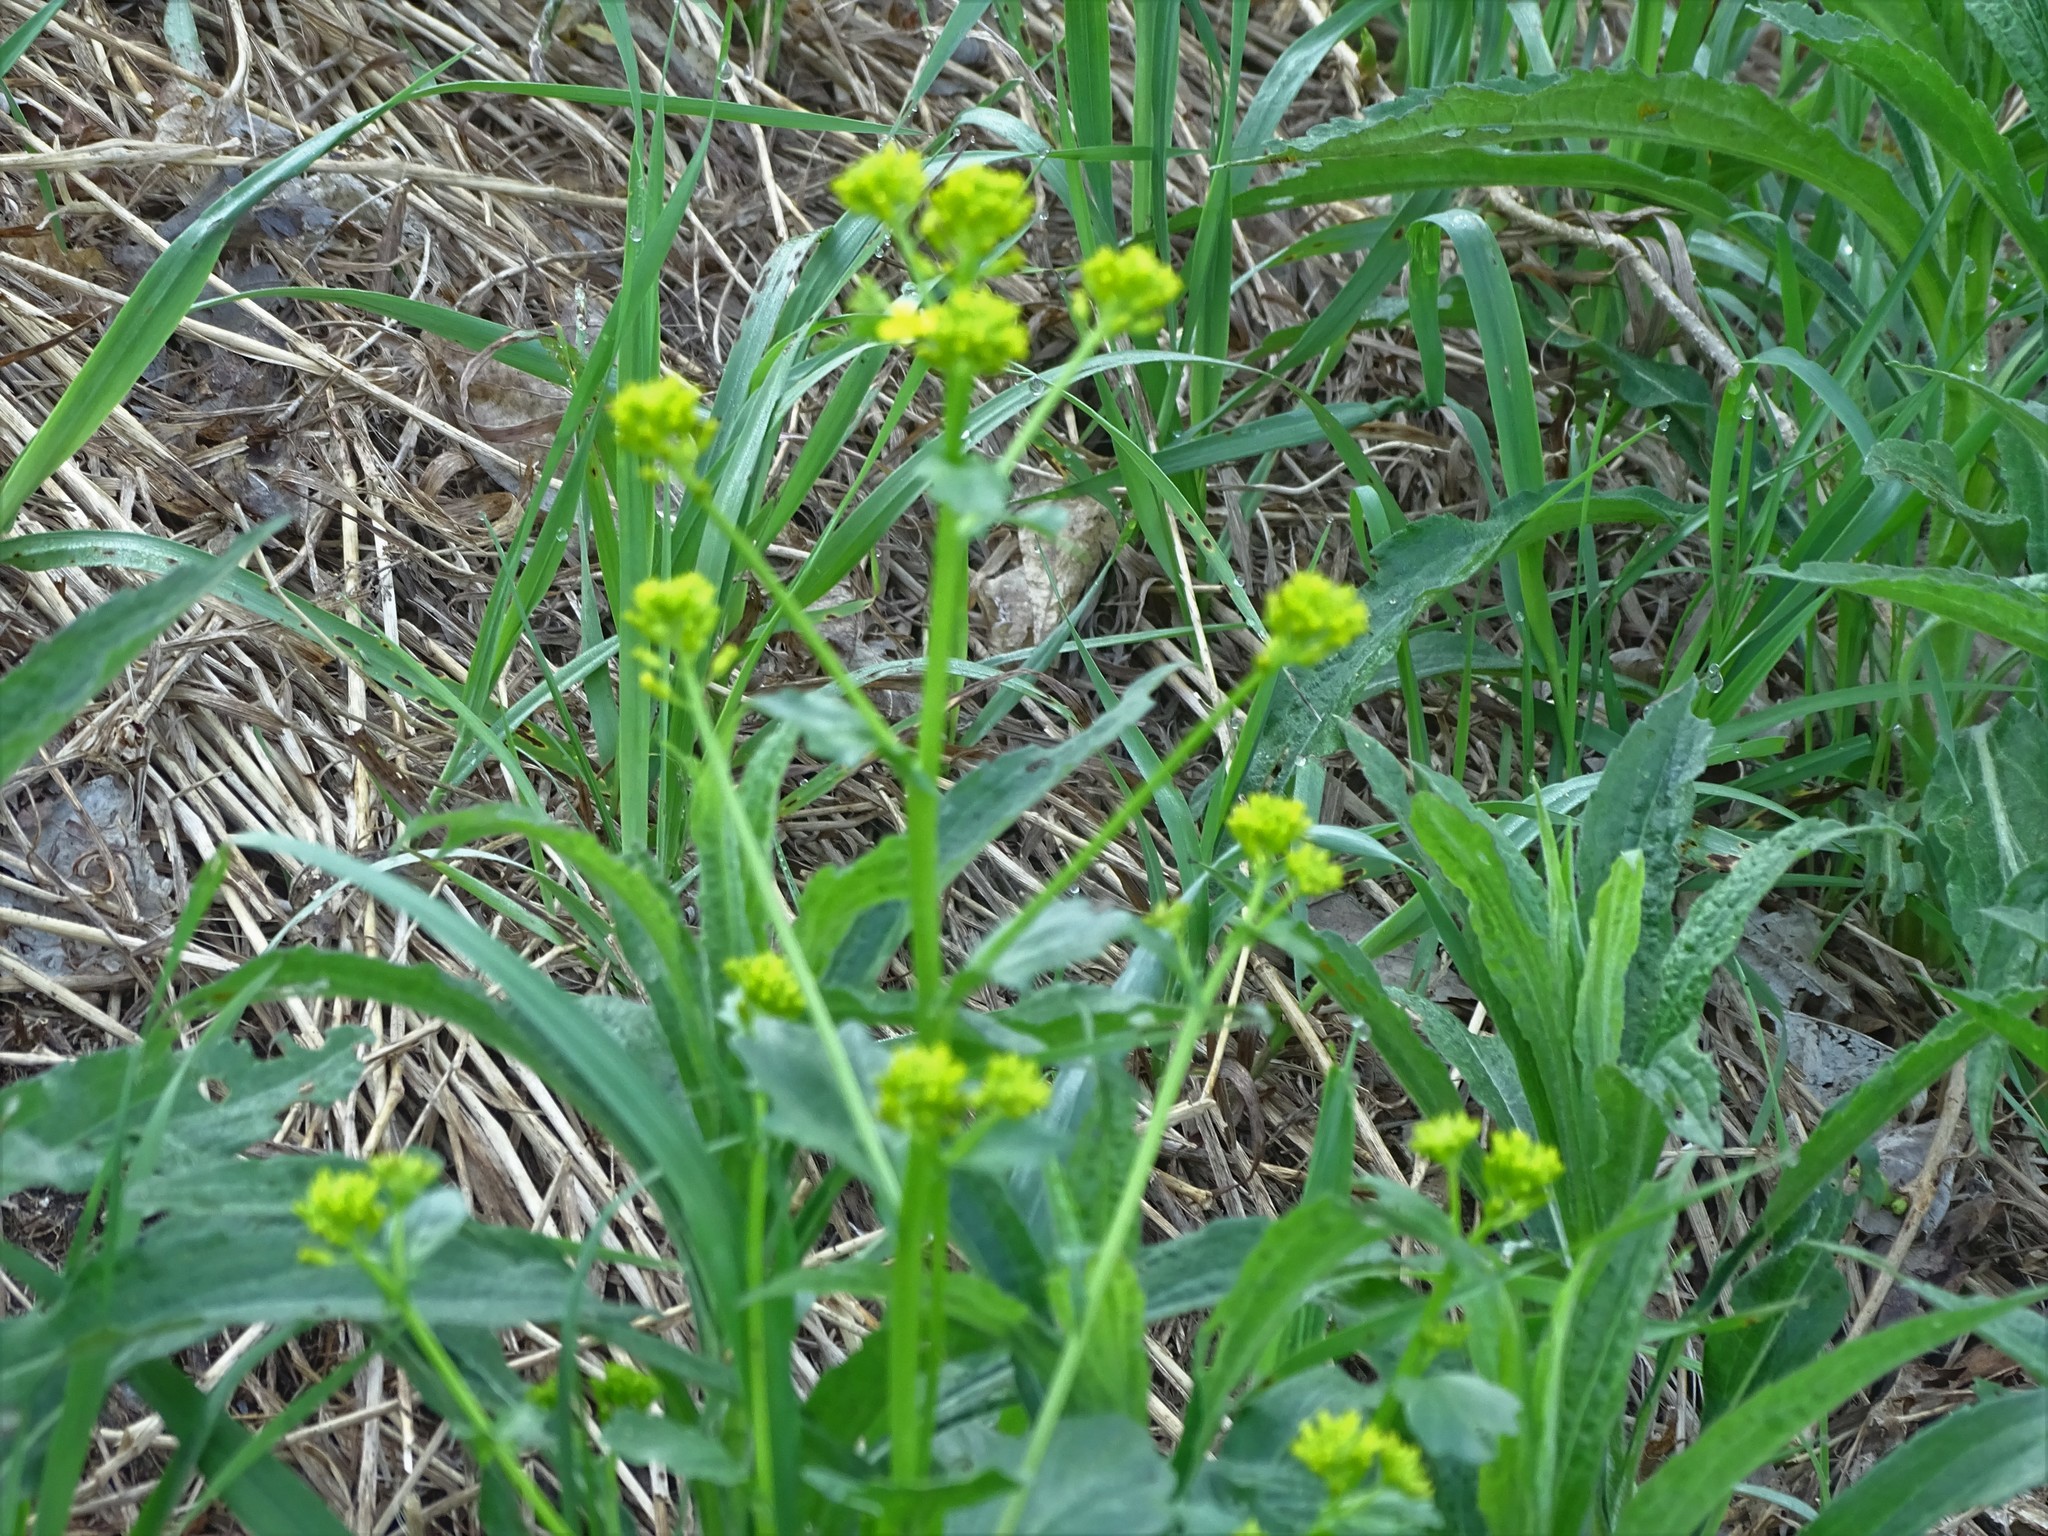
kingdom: Plantae
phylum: Tracheophyta
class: Magnoliopsida
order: Brassicales
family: Brassicaceae
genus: Barbarea
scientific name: Barbarea vulgaris
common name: Cressy-greens
